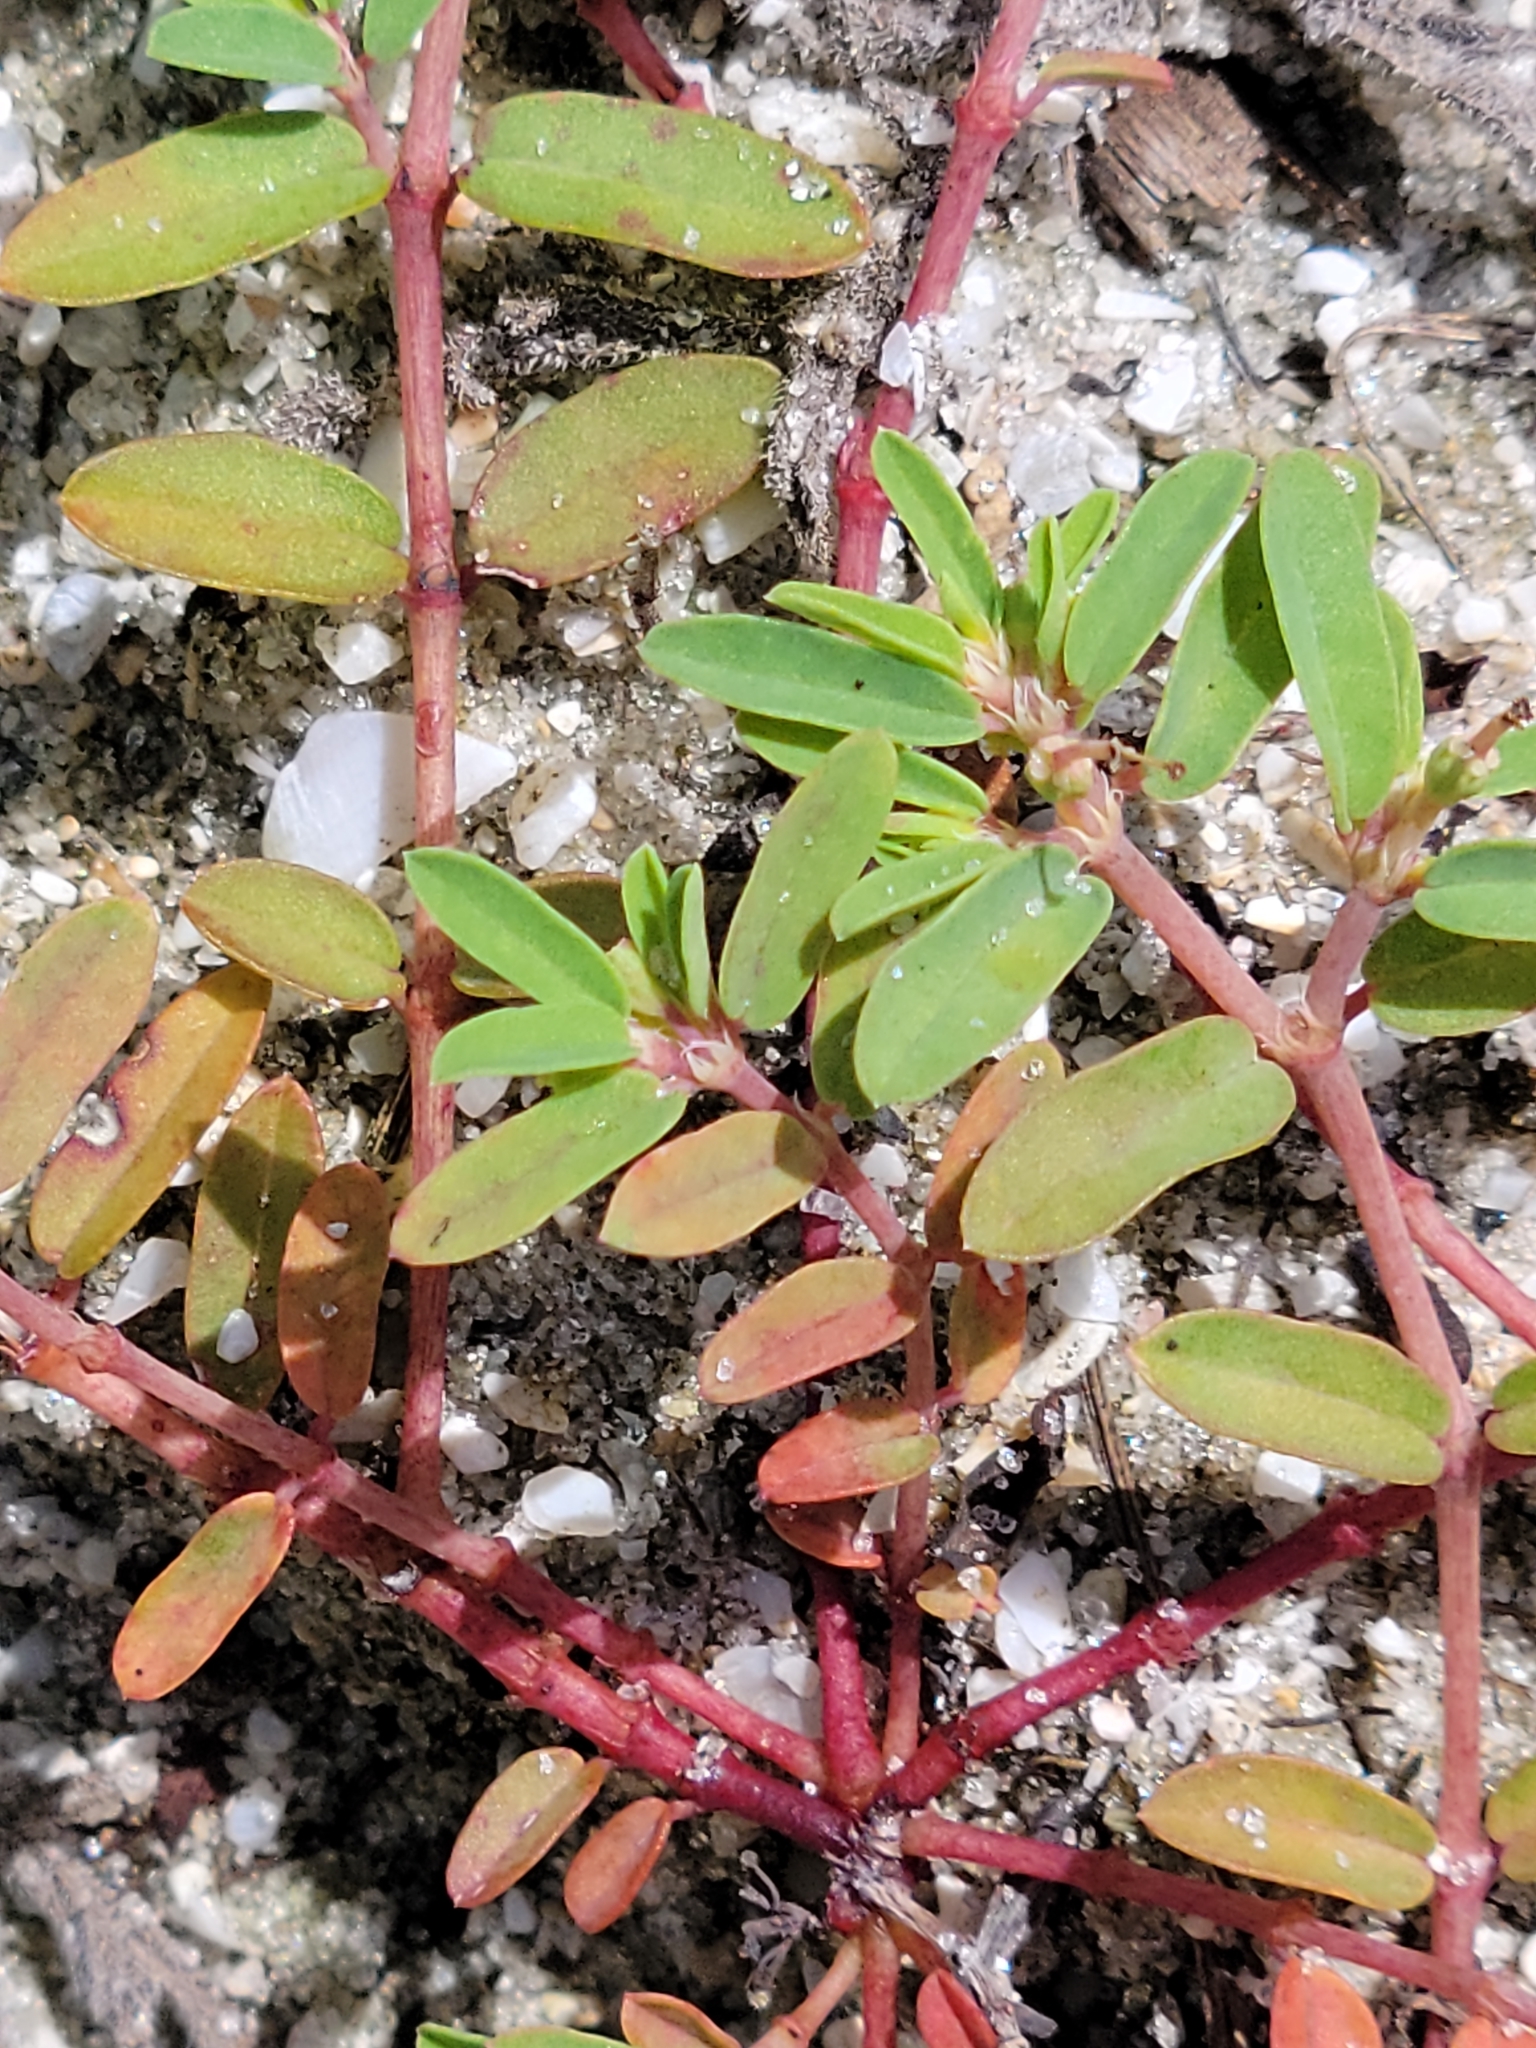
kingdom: Plantae
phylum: Tracheophyta
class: Magnoliopsida
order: Malpighiales
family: Euphorbiaceae
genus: Euphorbia
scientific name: Euphorbia bombensis
